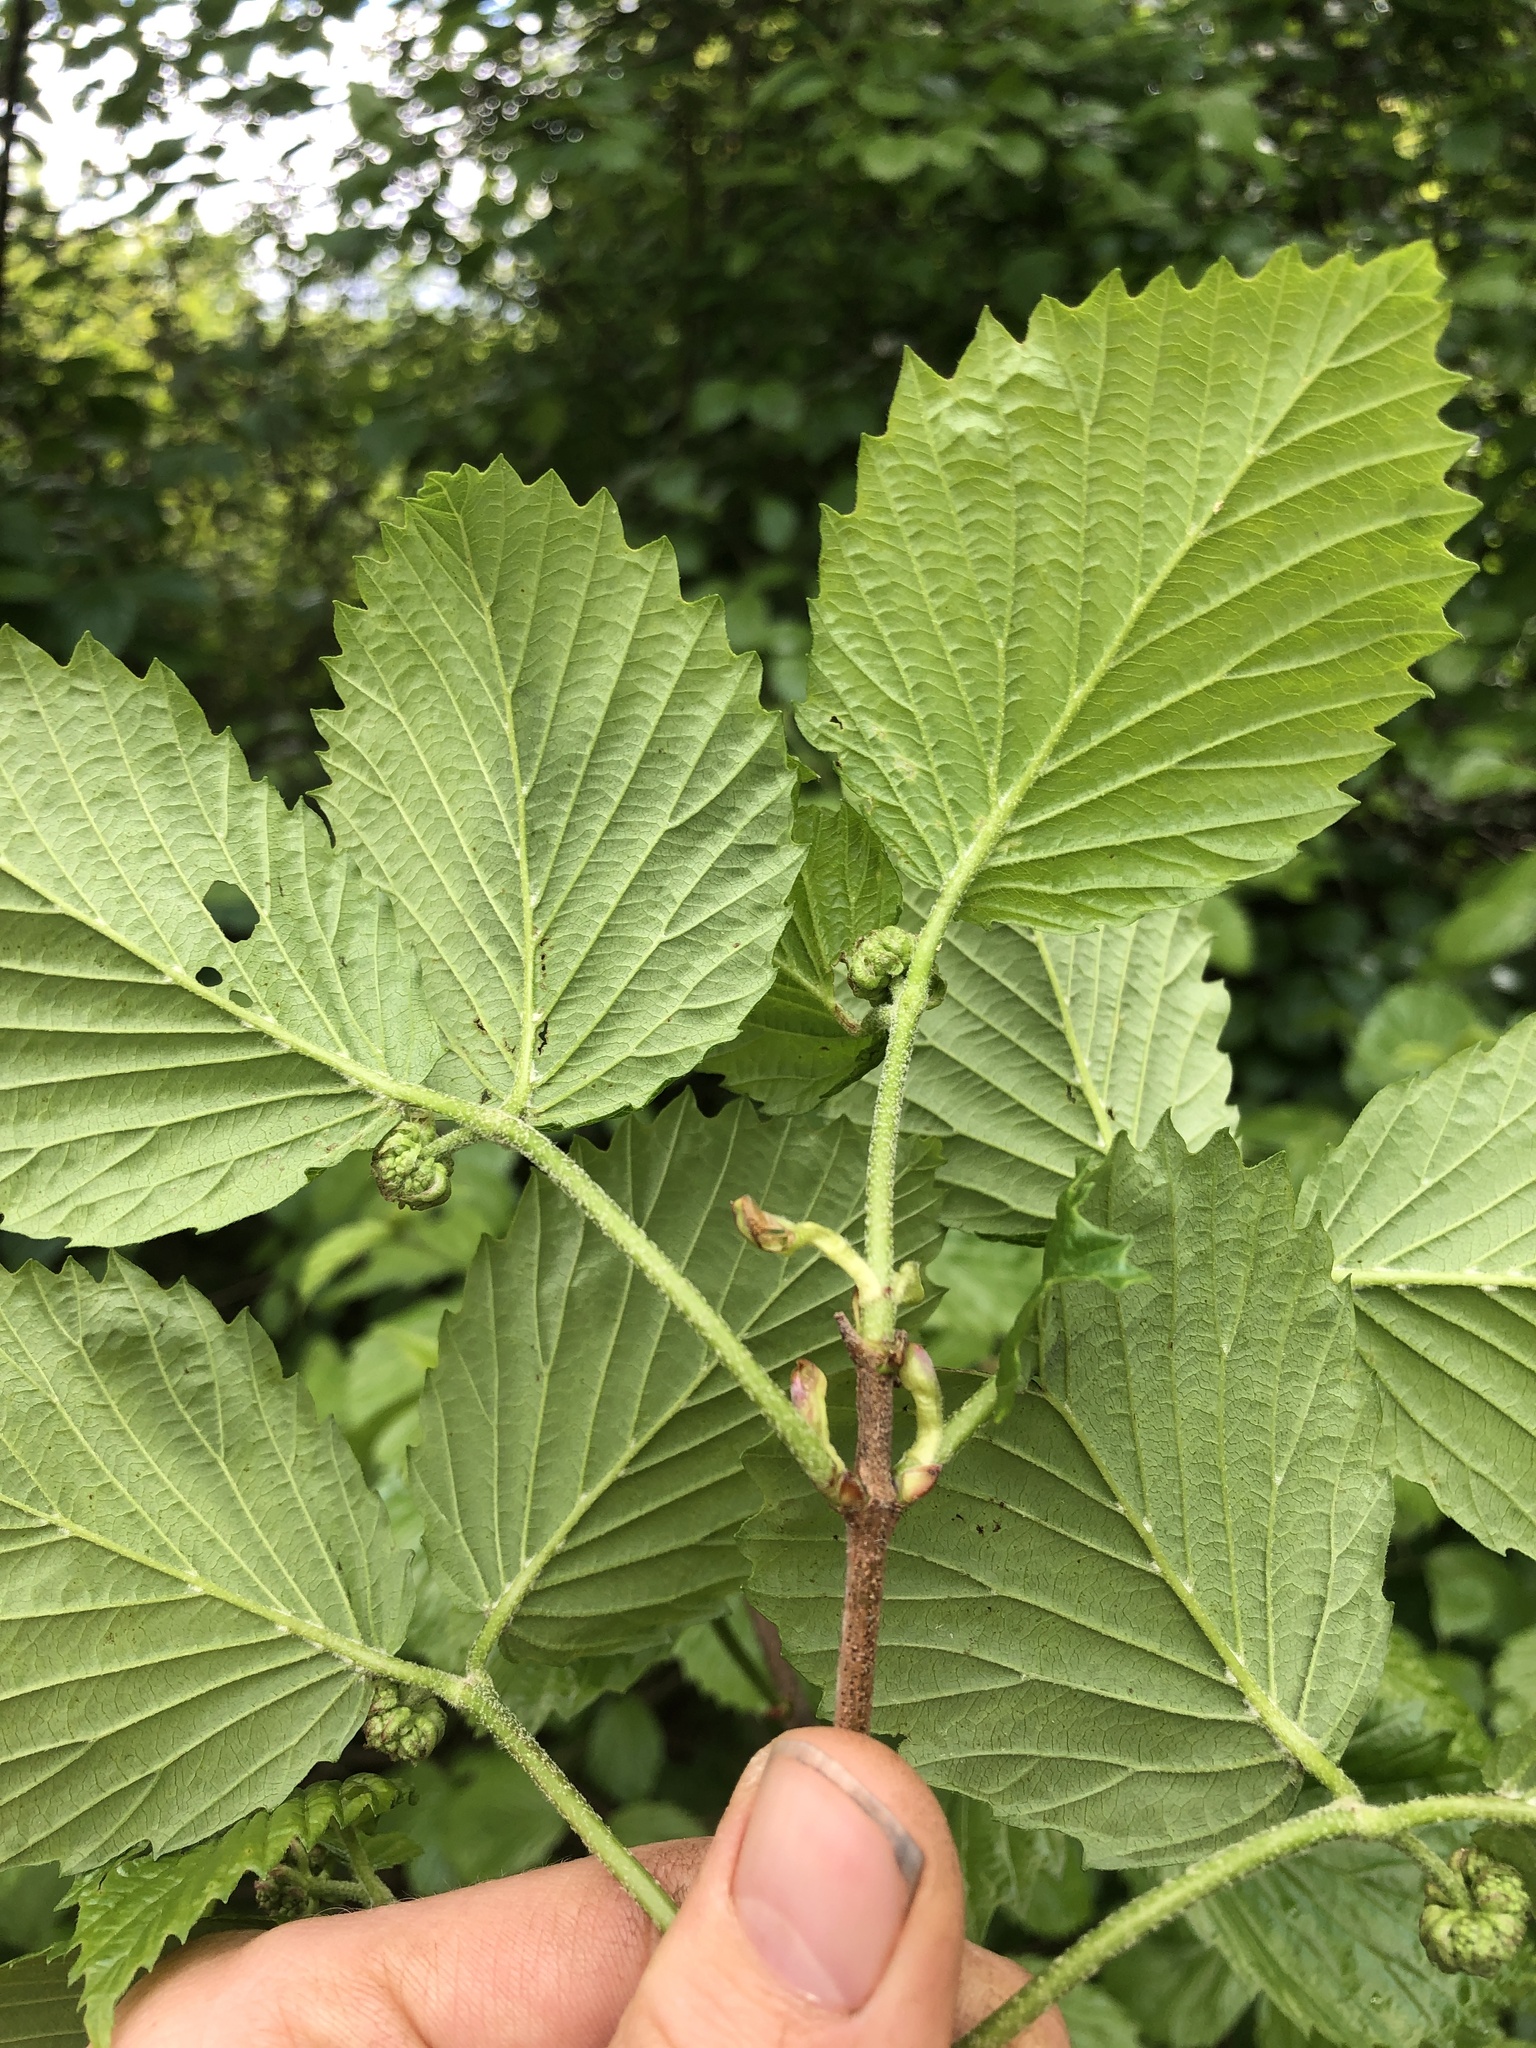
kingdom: Plantae
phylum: Tracheophyta
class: Magnoliopsida
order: Dipsacales
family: Viburnaceae
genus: Viburnum
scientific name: Viburnum dentatum
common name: Arrow-wood
